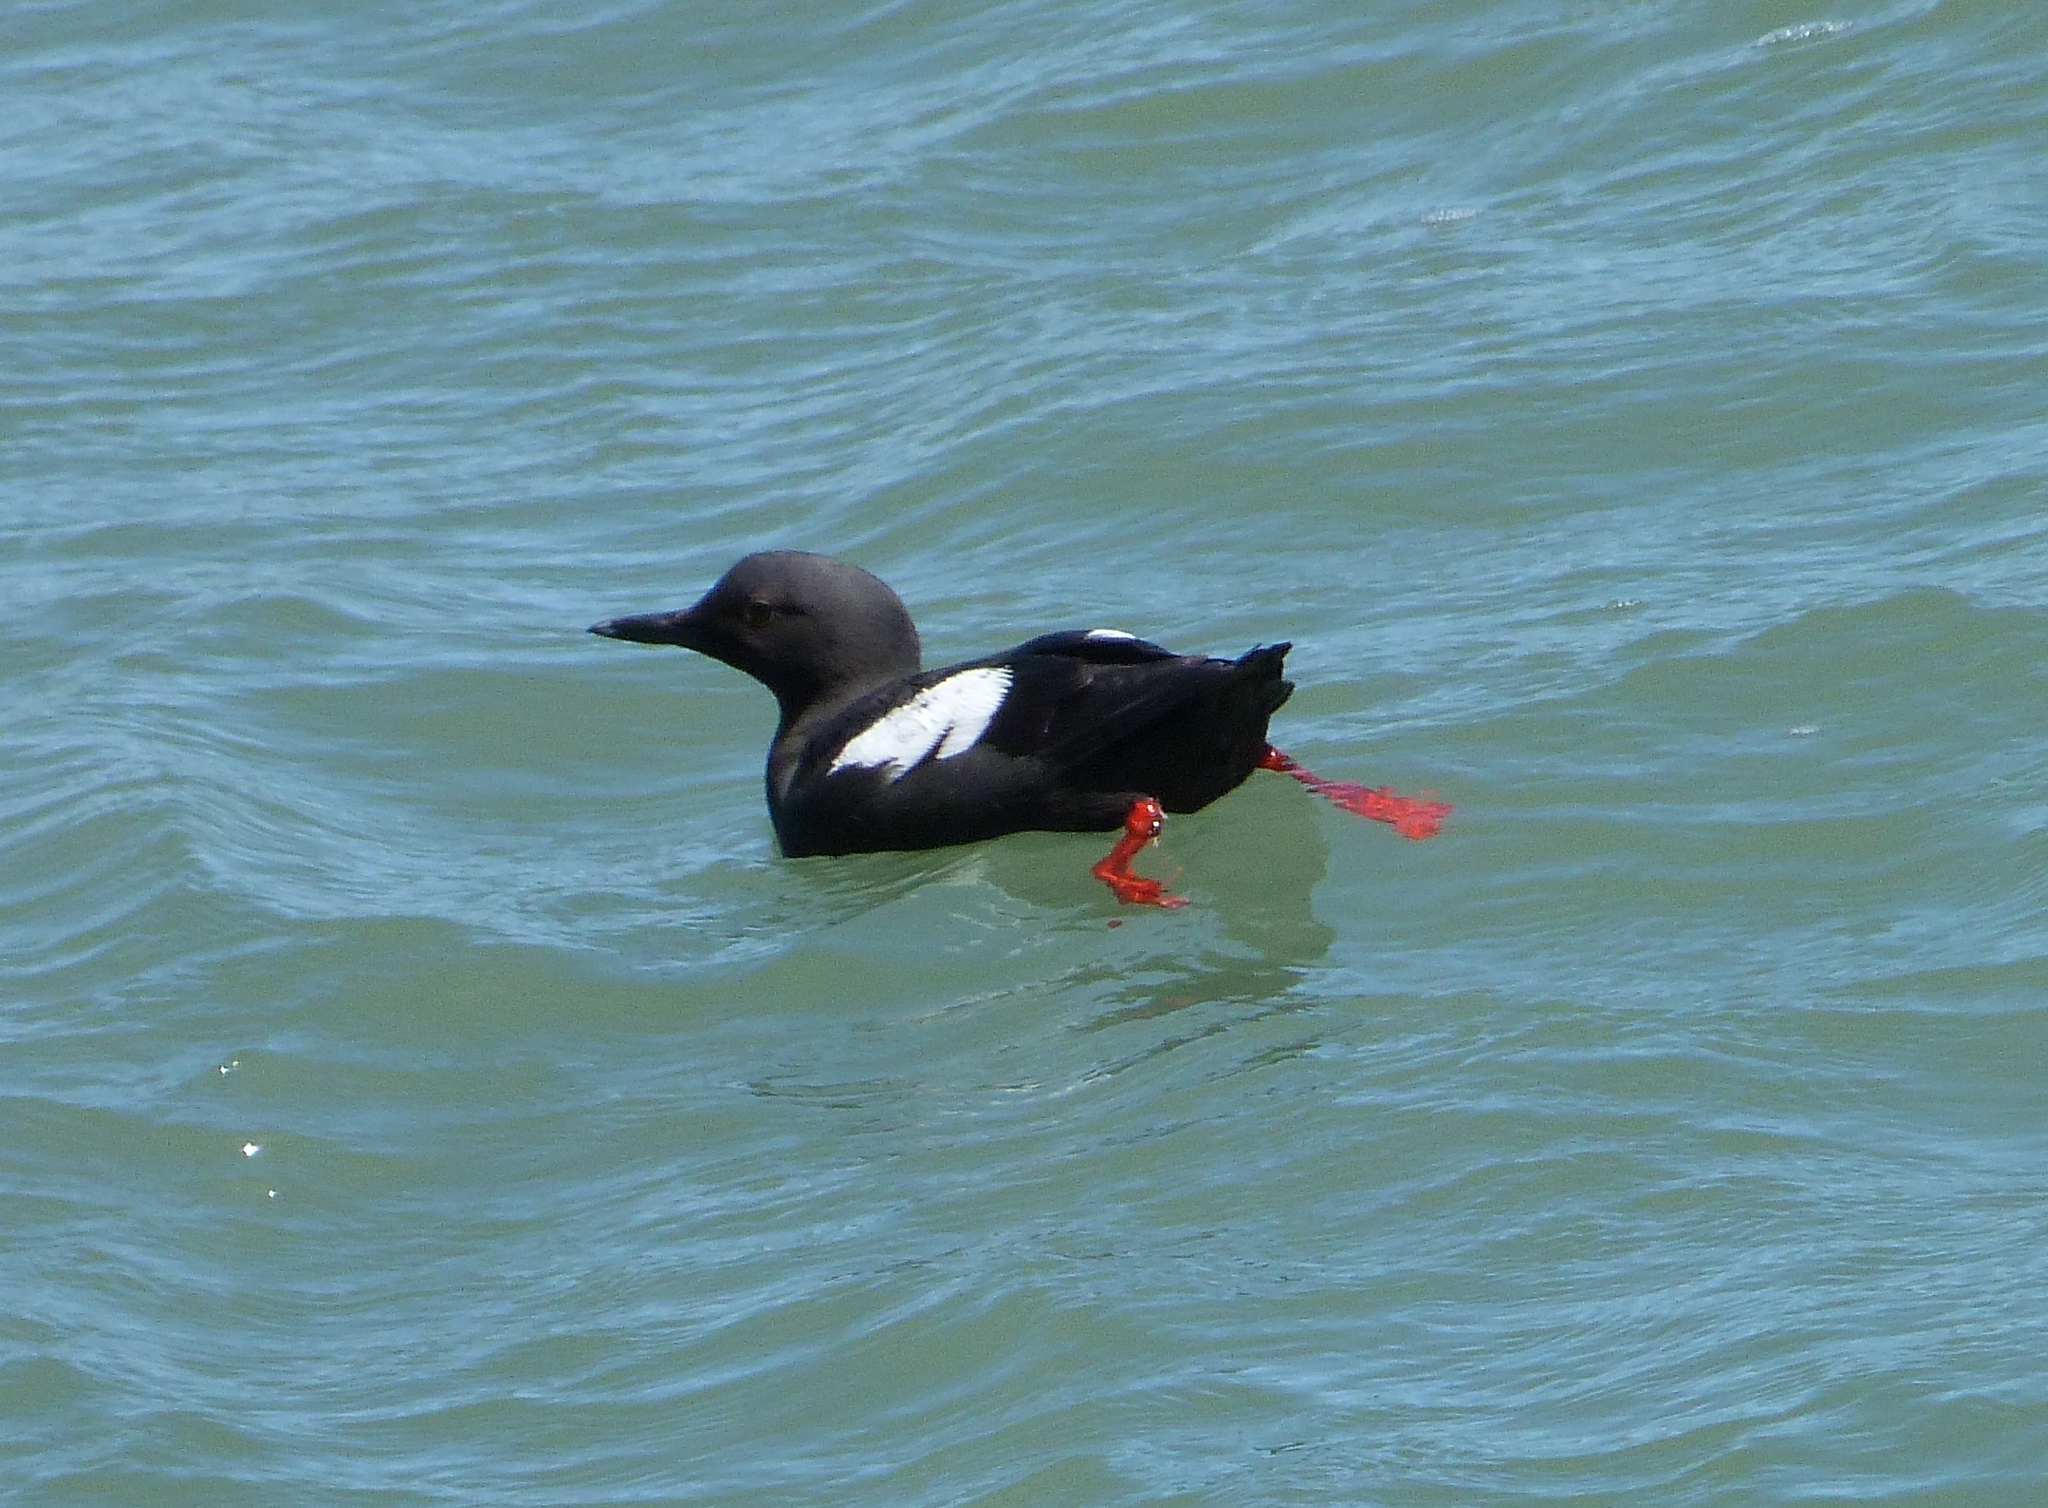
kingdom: Animalia
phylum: Chordata
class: Aves
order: Charadriiformes
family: Alcidae
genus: Cepphus
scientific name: Cepphus columba
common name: Pigeon guillemot
